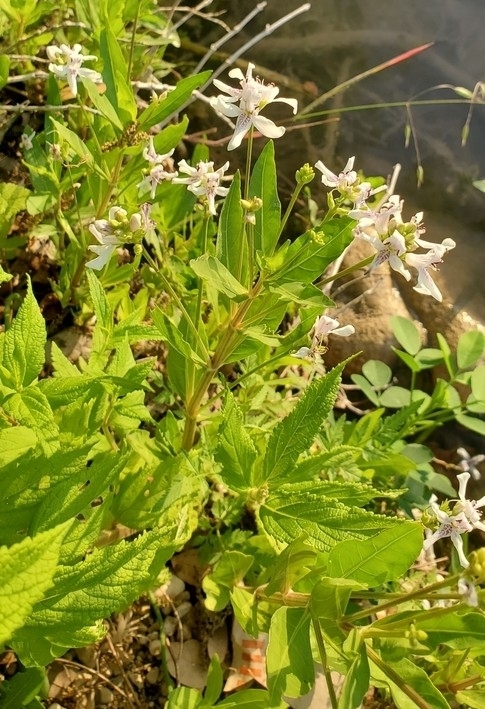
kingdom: Plantae
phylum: Tracheophyta
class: Magnoliopsida
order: Lamiales
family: Acanthaceae
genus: Dianthera
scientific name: Dianthera americana
